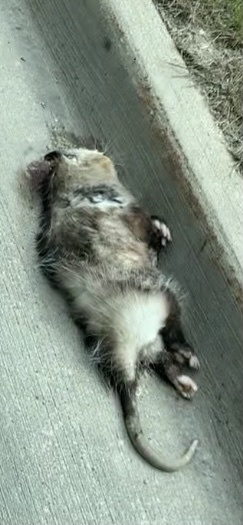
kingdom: Animalia
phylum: Chordata
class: Mammalia
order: Didelphimorphia
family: Didelphidae
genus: Didelphis
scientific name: Didelphis virginiana
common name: Virginia opossum
